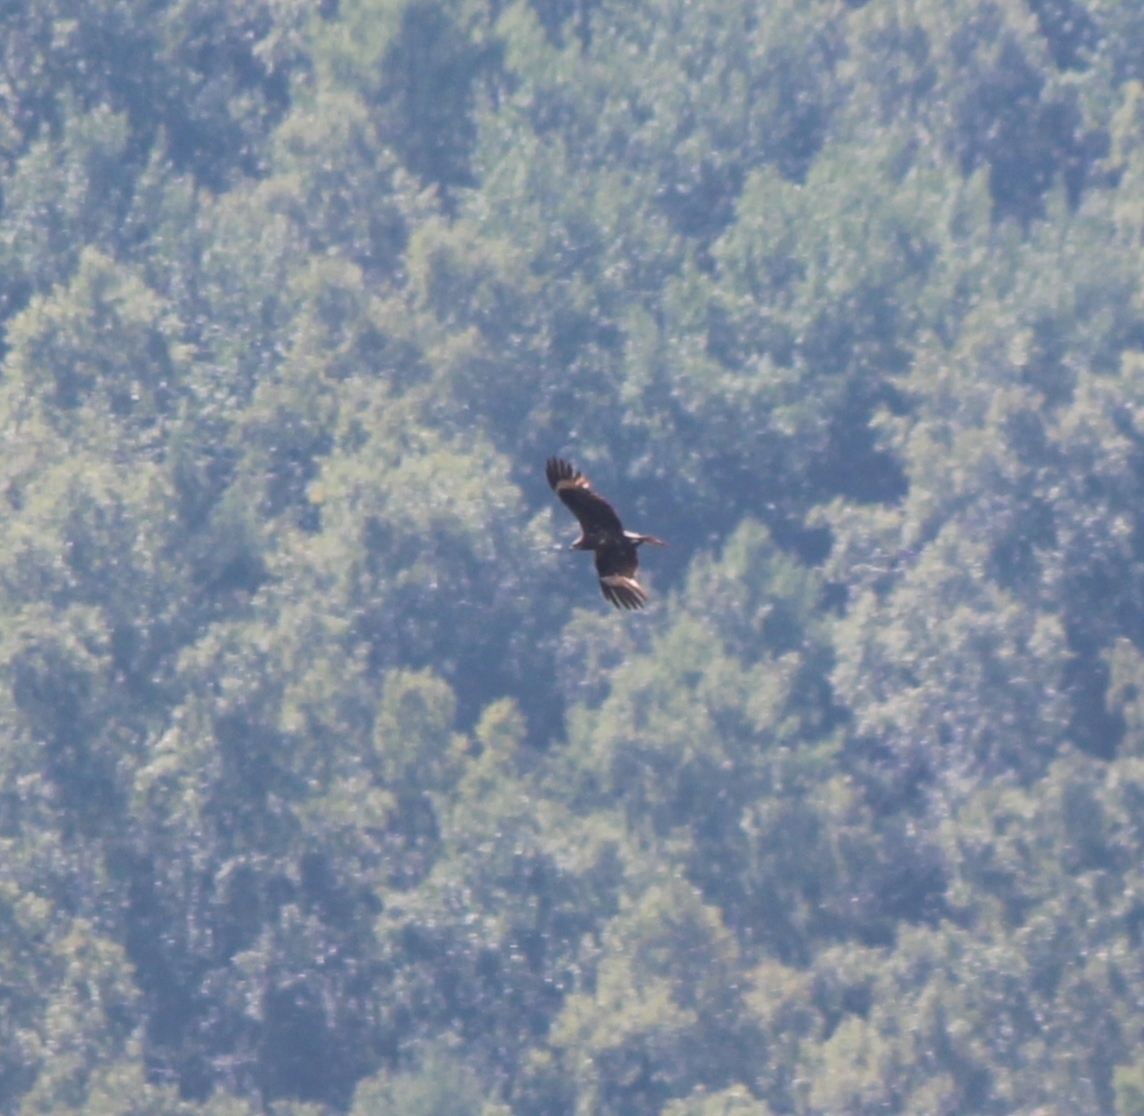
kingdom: Animalia
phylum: Chordata
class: Aves
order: Accipitriformes
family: Accipitridae
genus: Milvus
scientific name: Milvus migrans
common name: Black kite
